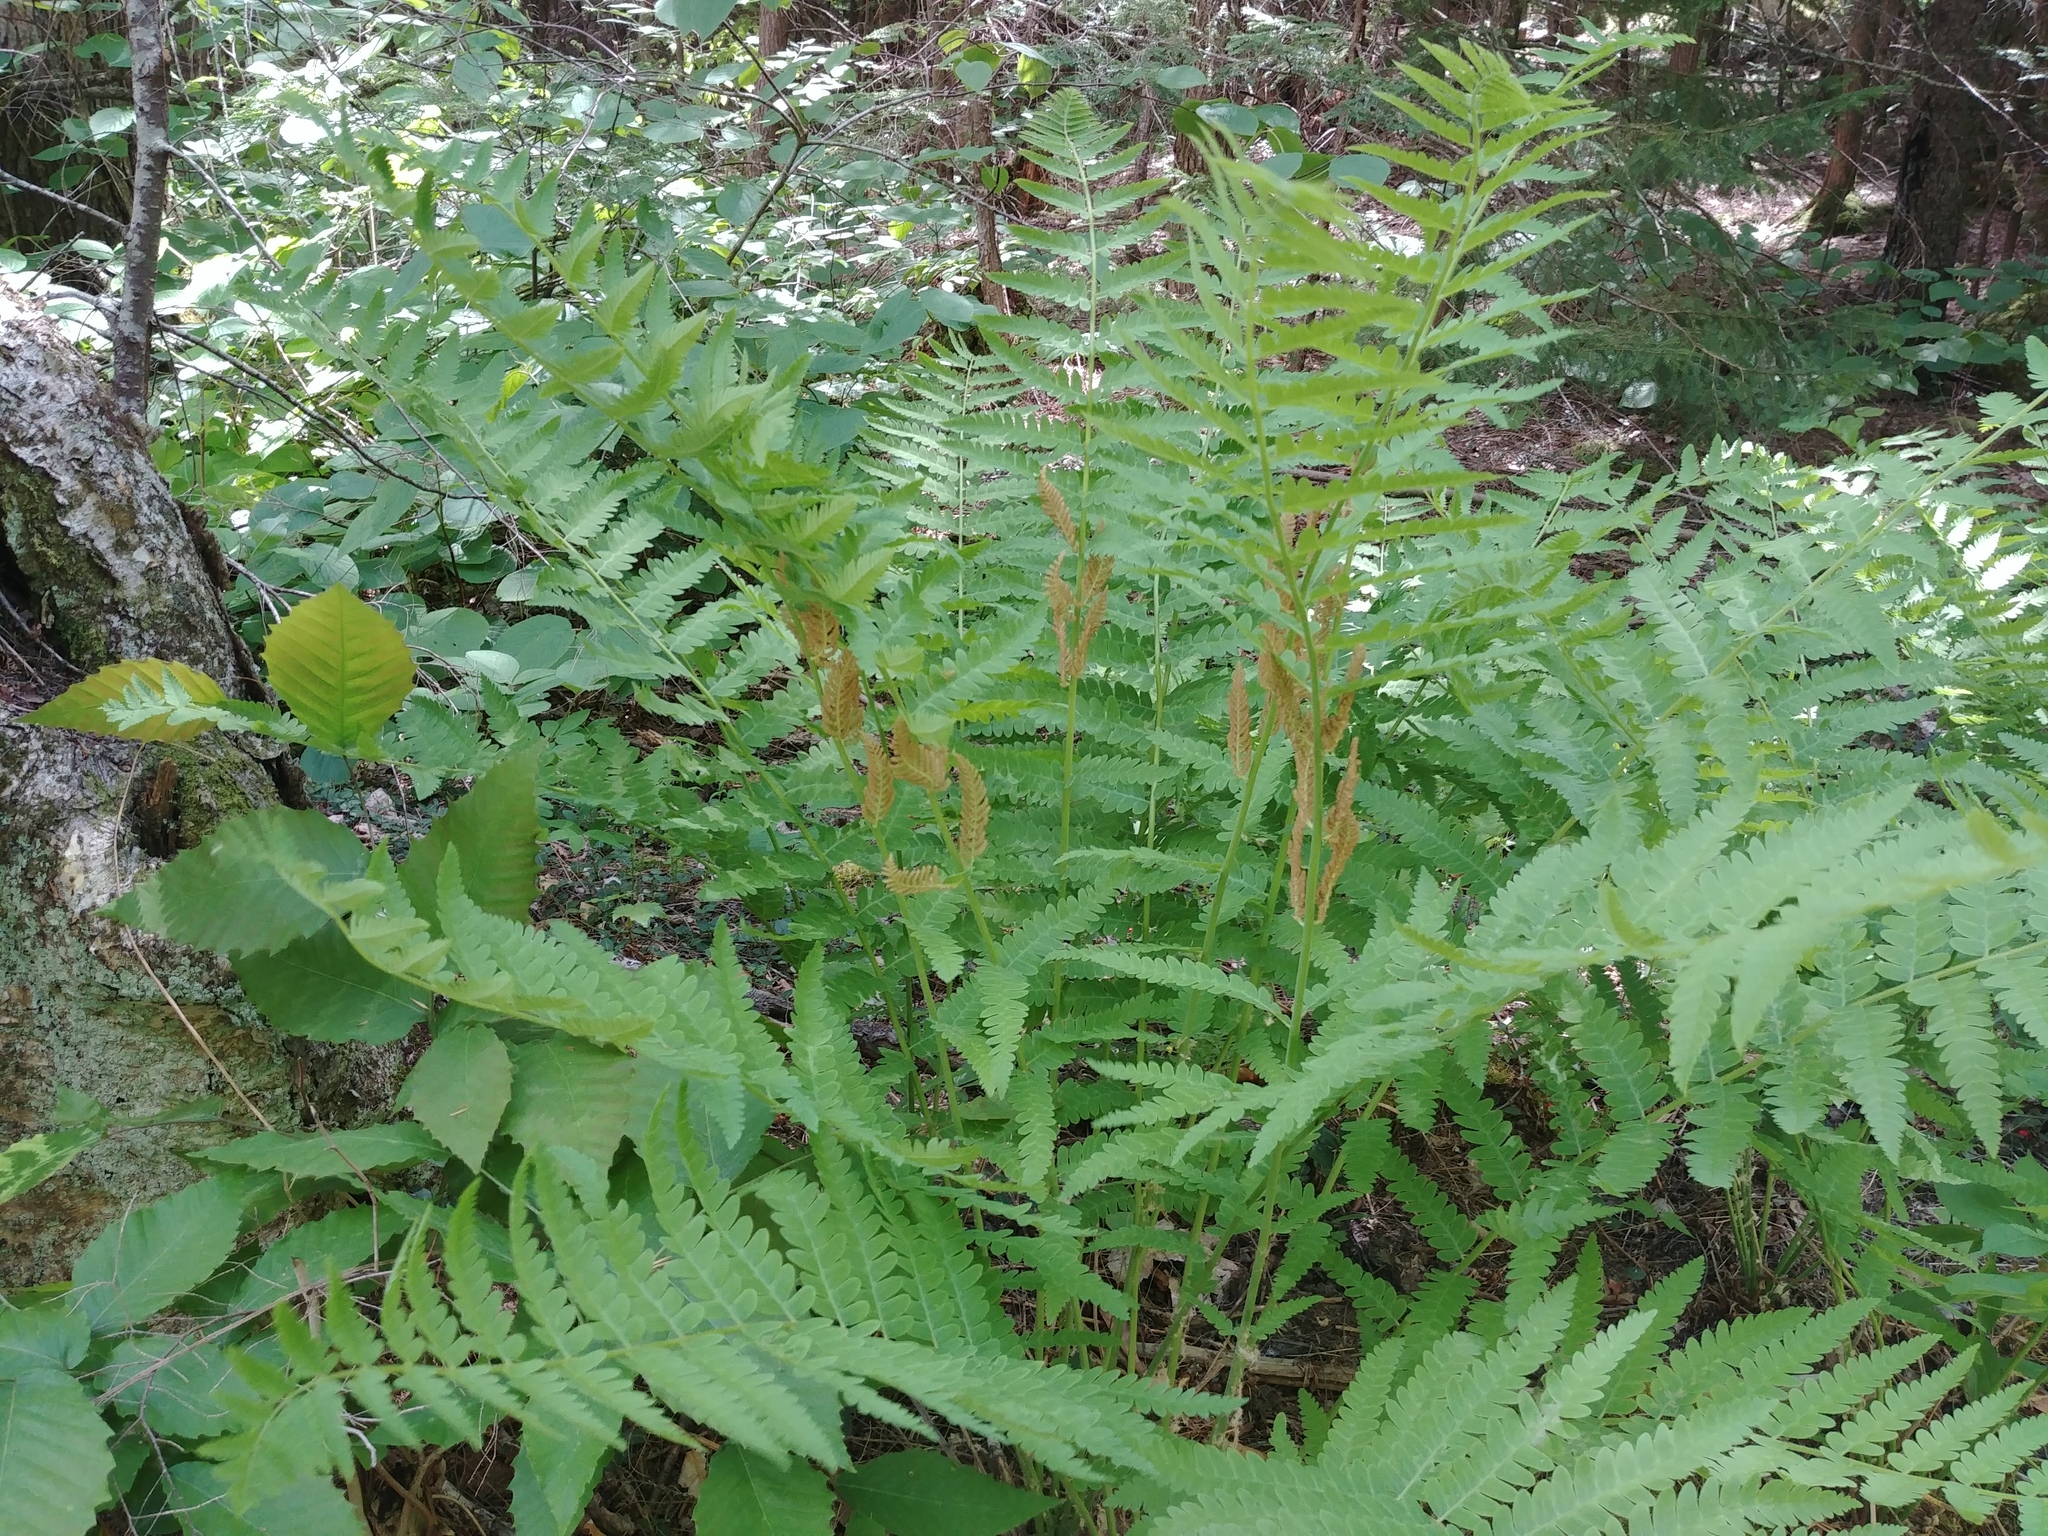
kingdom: Plantae
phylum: Tracheophyta
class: Polypodiopsida
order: Osmundales
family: Osmundaceae
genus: Claytosmunda
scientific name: Claytosmunda claytoniana
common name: Clayton's fern
